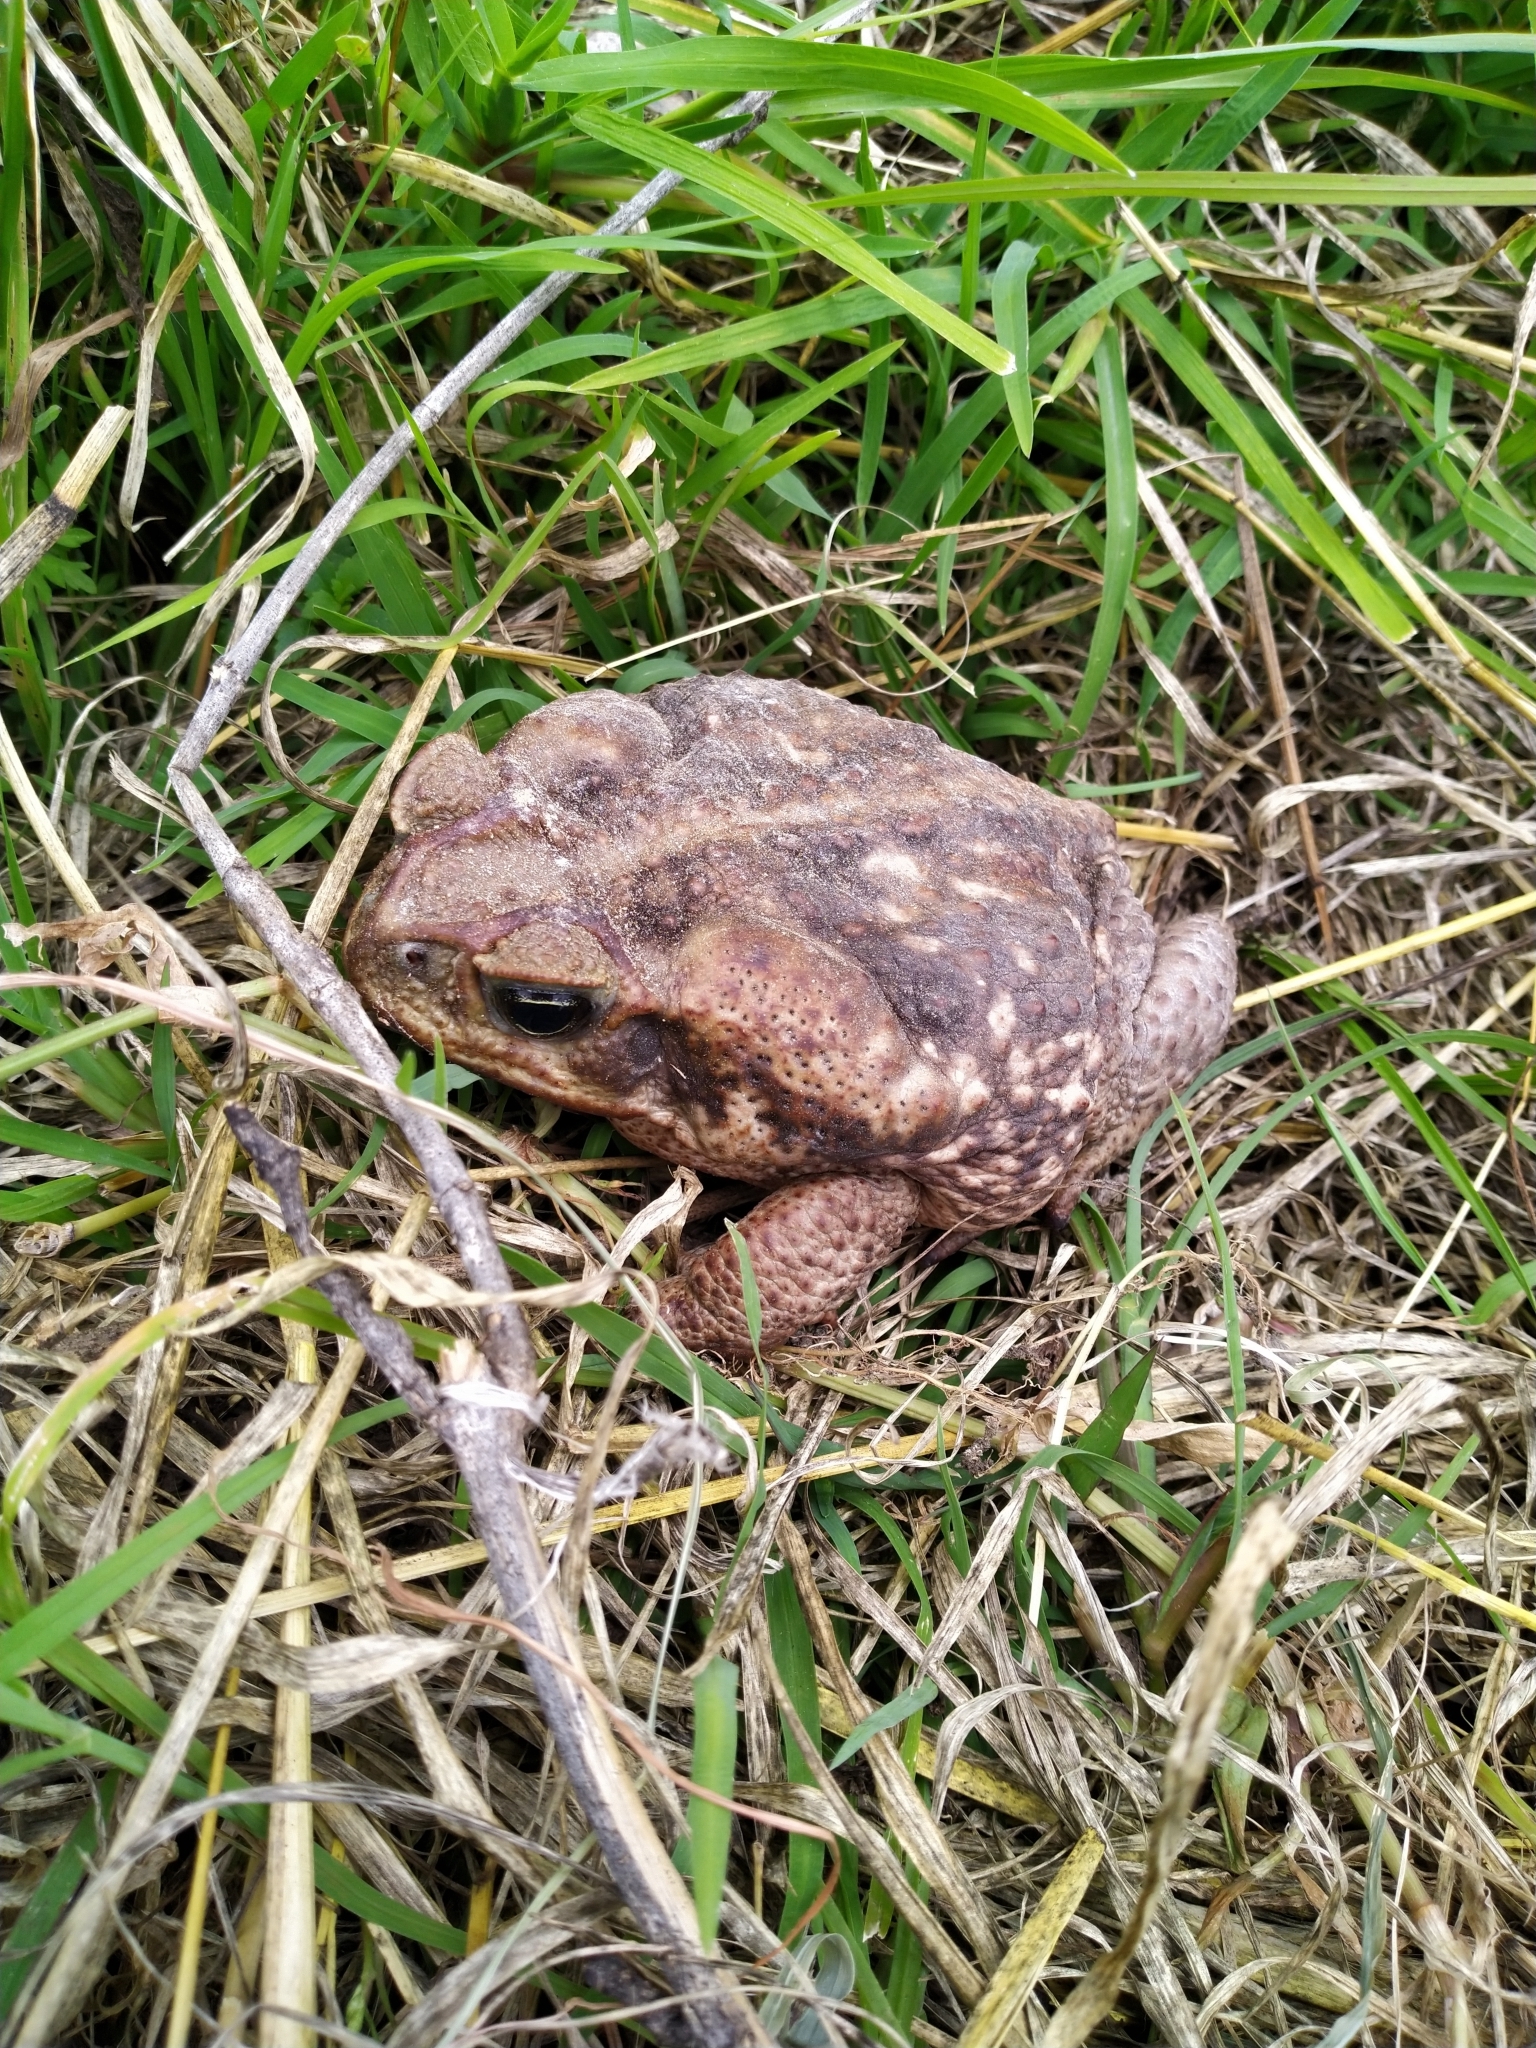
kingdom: Animalia
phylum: Chordata
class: Amphibia
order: Anura
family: Bufonidae
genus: Rhinella
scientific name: Rhinella horribilis
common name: Mesoamerican cane toad
